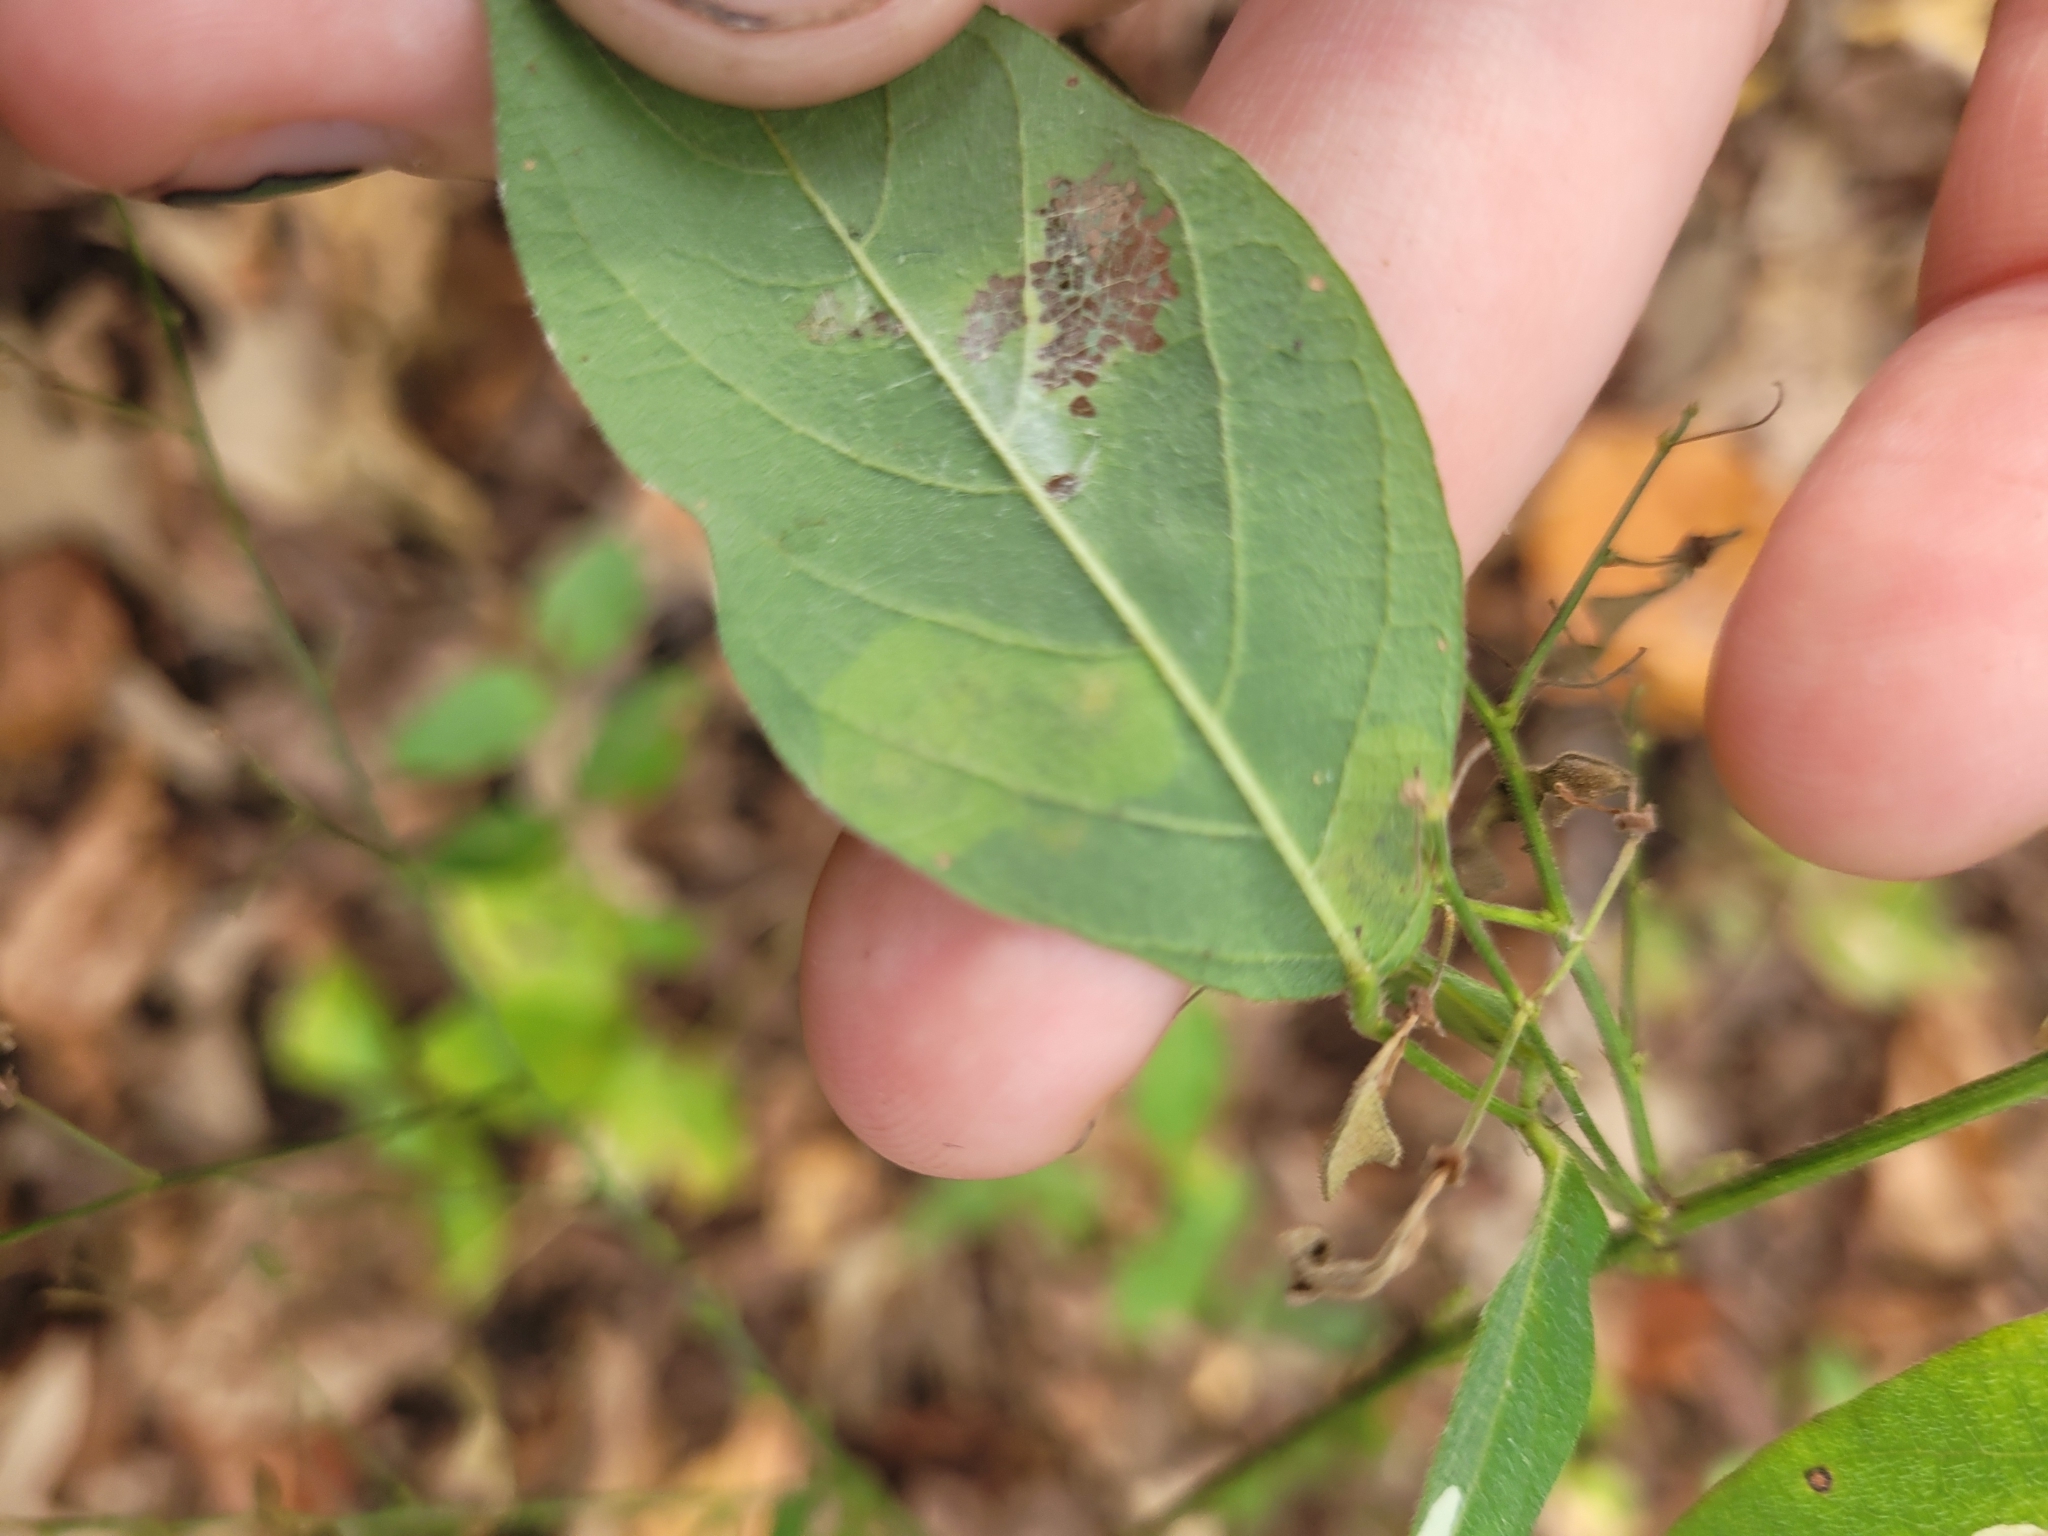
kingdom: Animalia
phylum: Arthropoda
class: Insecta
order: Lepidoptera
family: Gracillariidae
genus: Anarsioses
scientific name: Anarsioses aberrans
